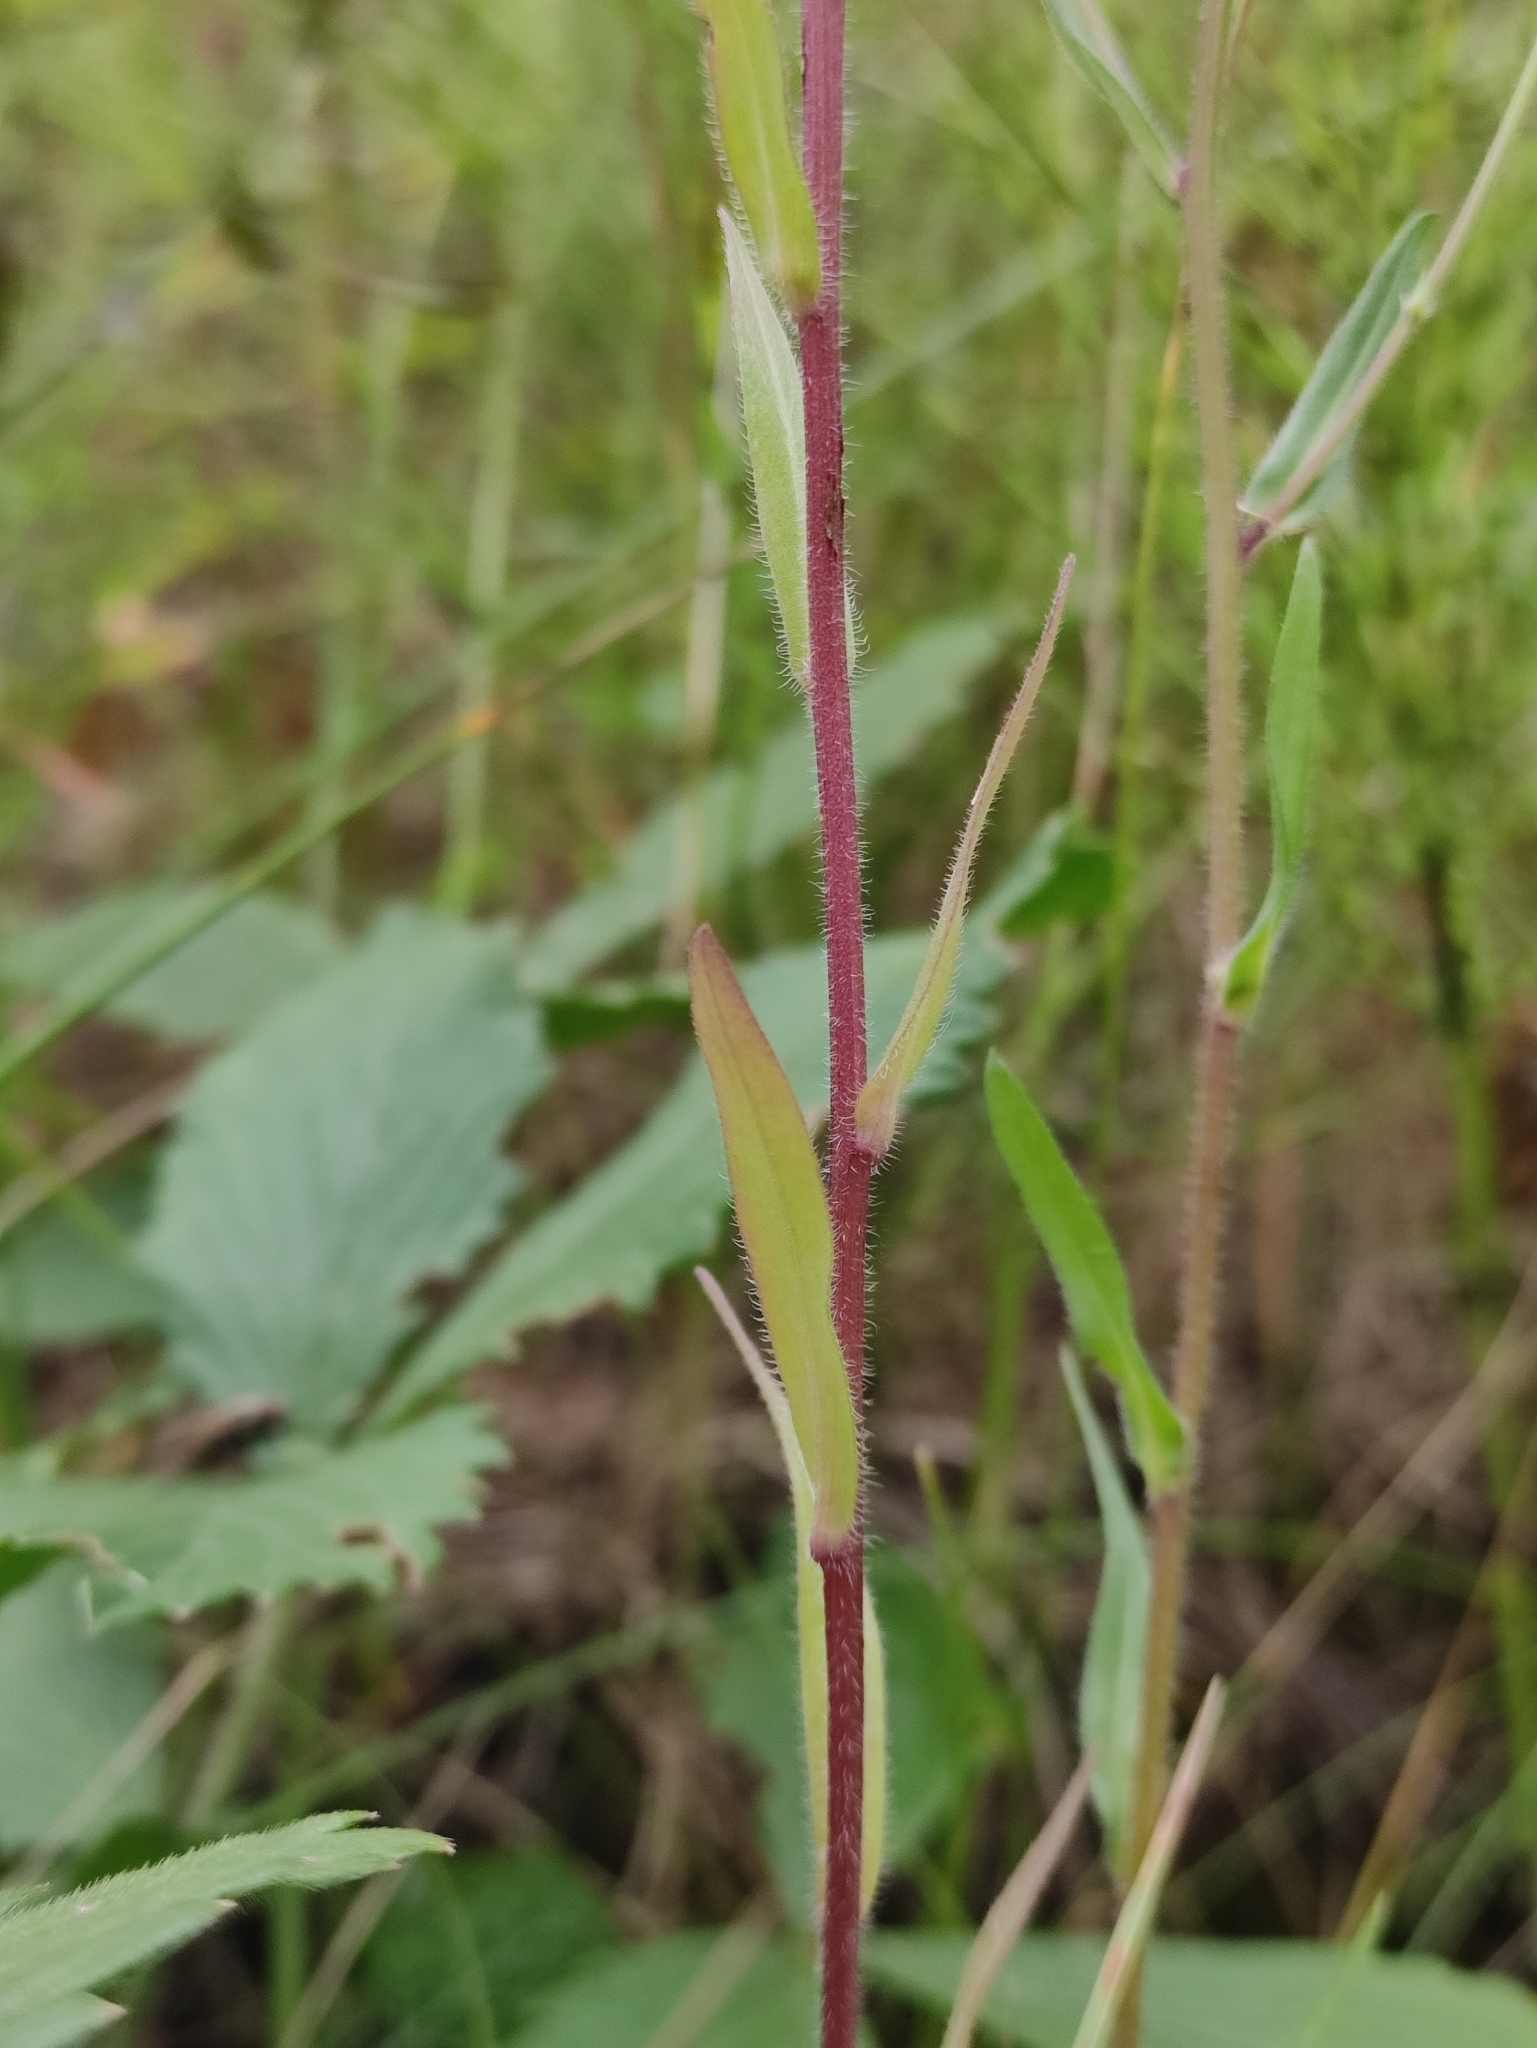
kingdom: Plantae
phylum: Tracheophyta
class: Magnoliopsida
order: Asterales
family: Asteraceae
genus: Erigeron
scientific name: Erigeron acris
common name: Blue fleabane
